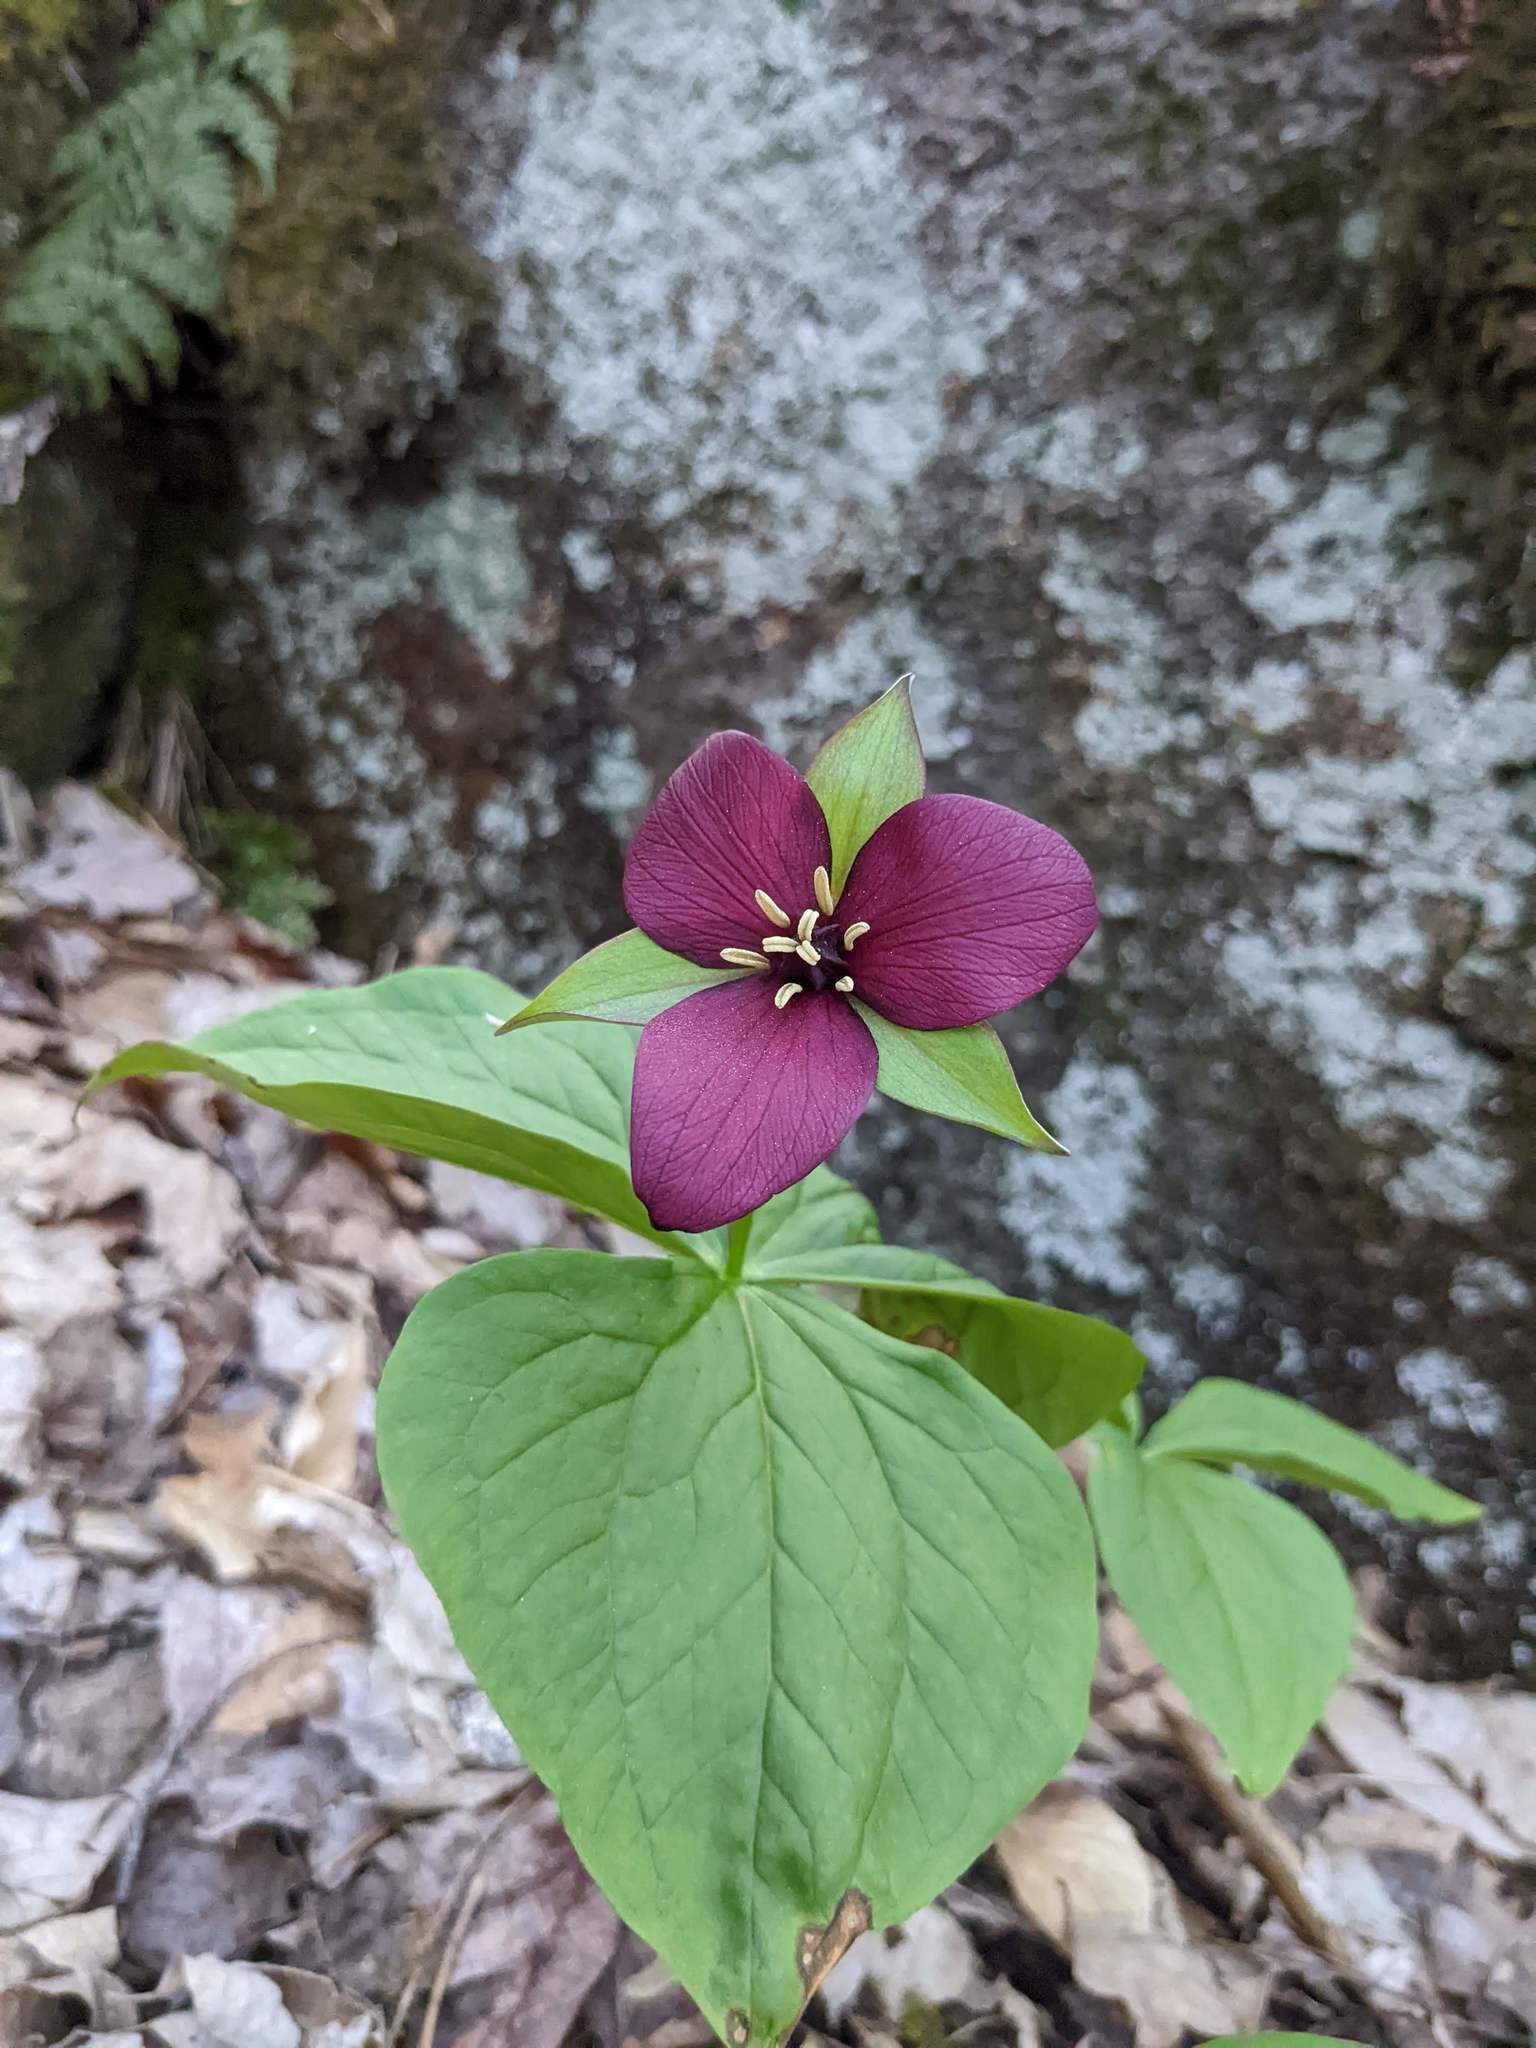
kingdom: Plantae
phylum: Tracheophyta
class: Liliopsida
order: Liliales
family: Melanthiaceae
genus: Trillium
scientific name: Trillium erectum
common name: Purple trillium
